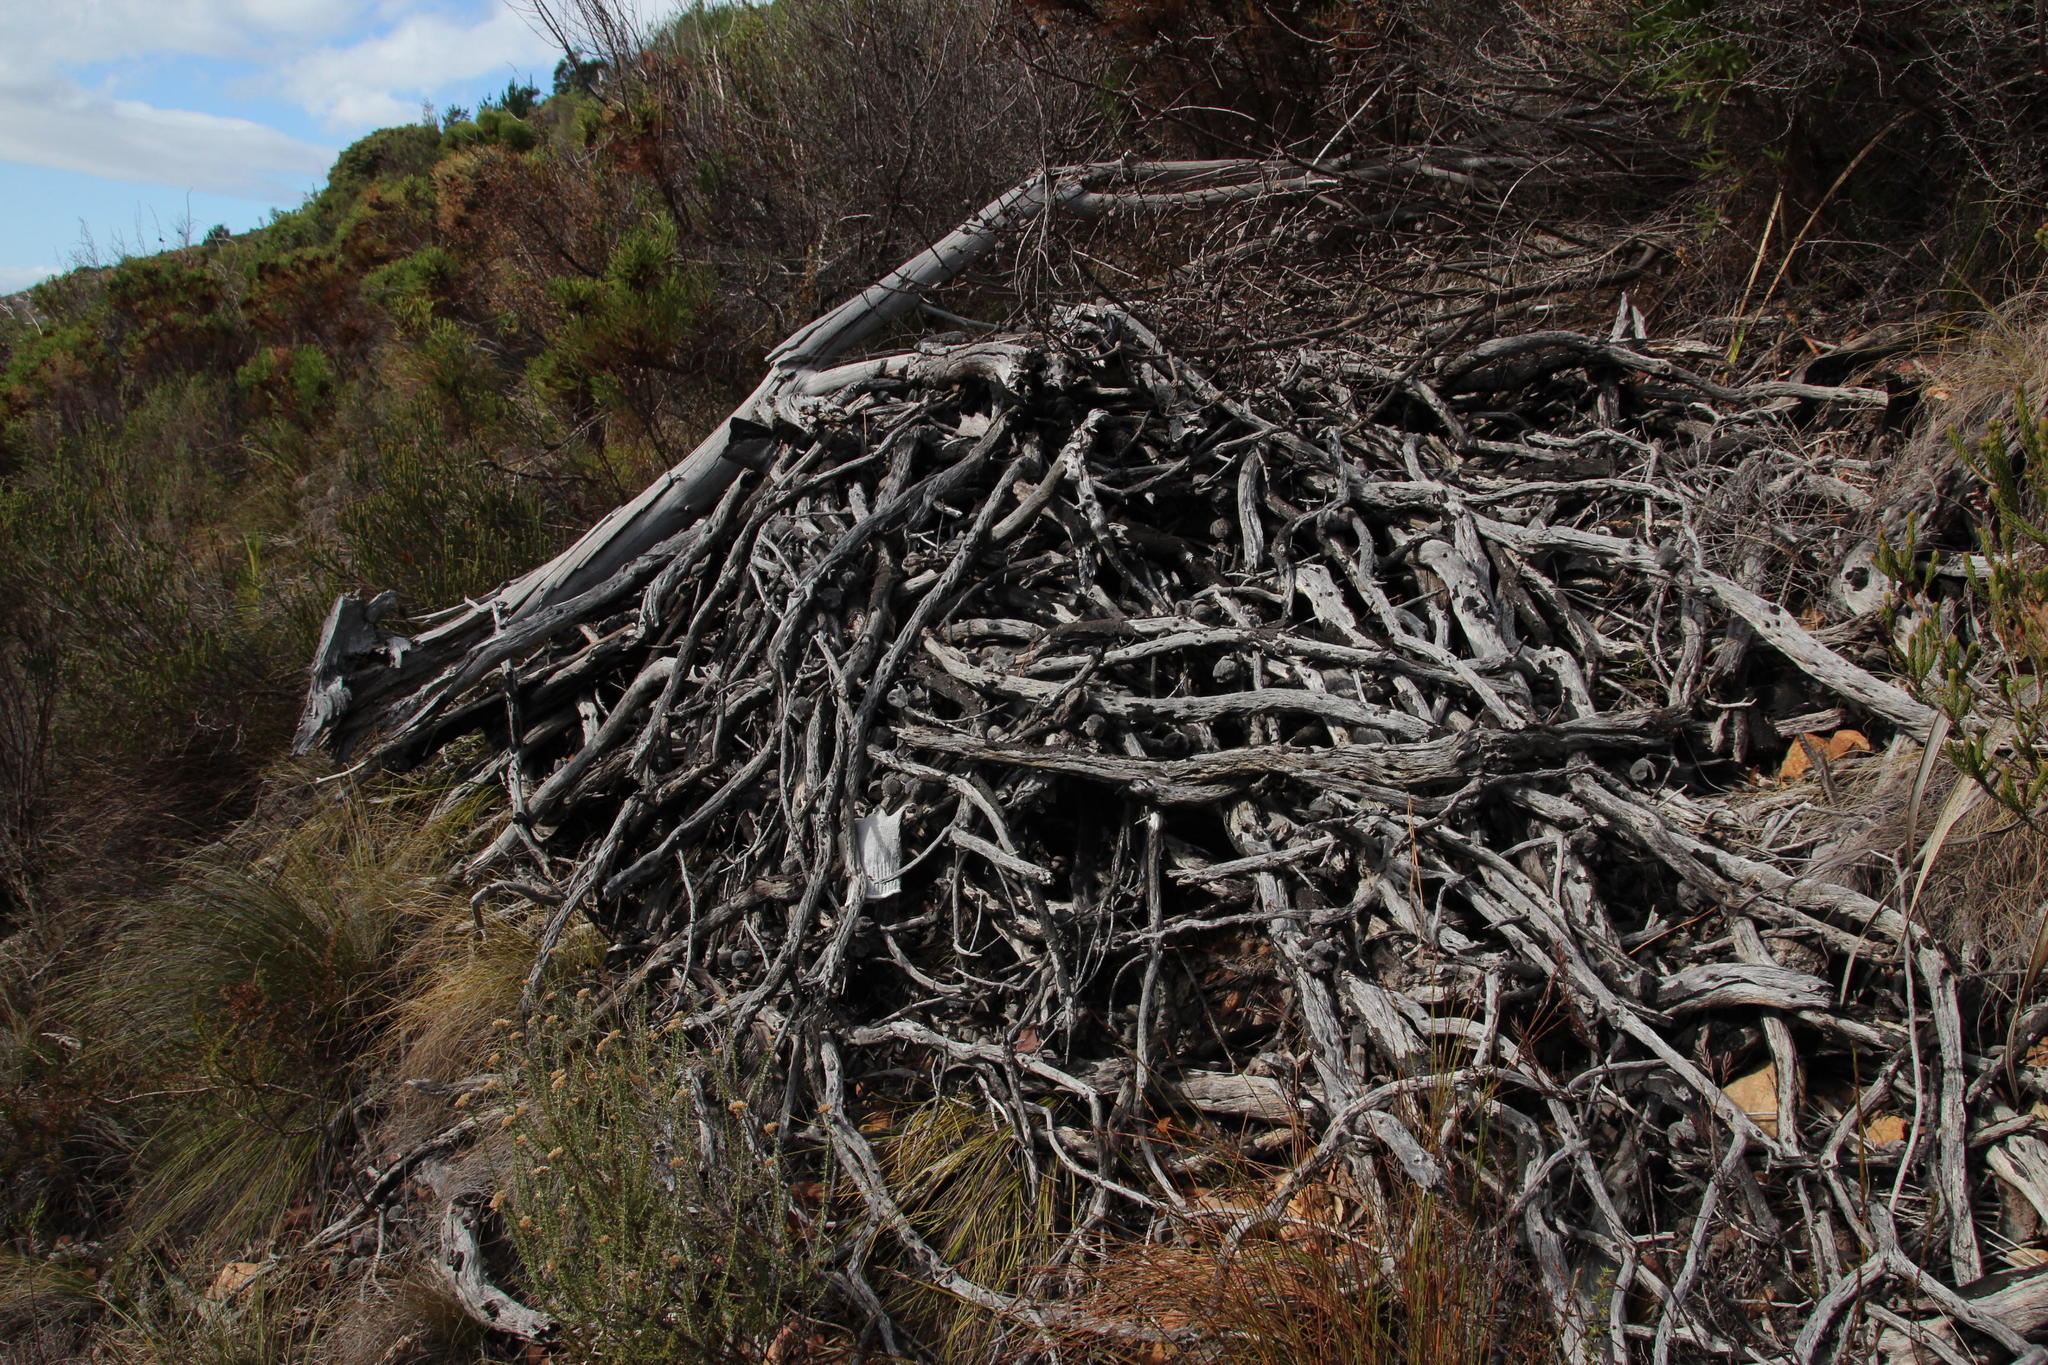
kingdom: Plantae
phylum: Tracheophyta
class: Magnoliopsida
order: Proteales
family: Proteaceae
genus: Hakea
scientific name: Hakea gibbosa
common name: Rock hakea
